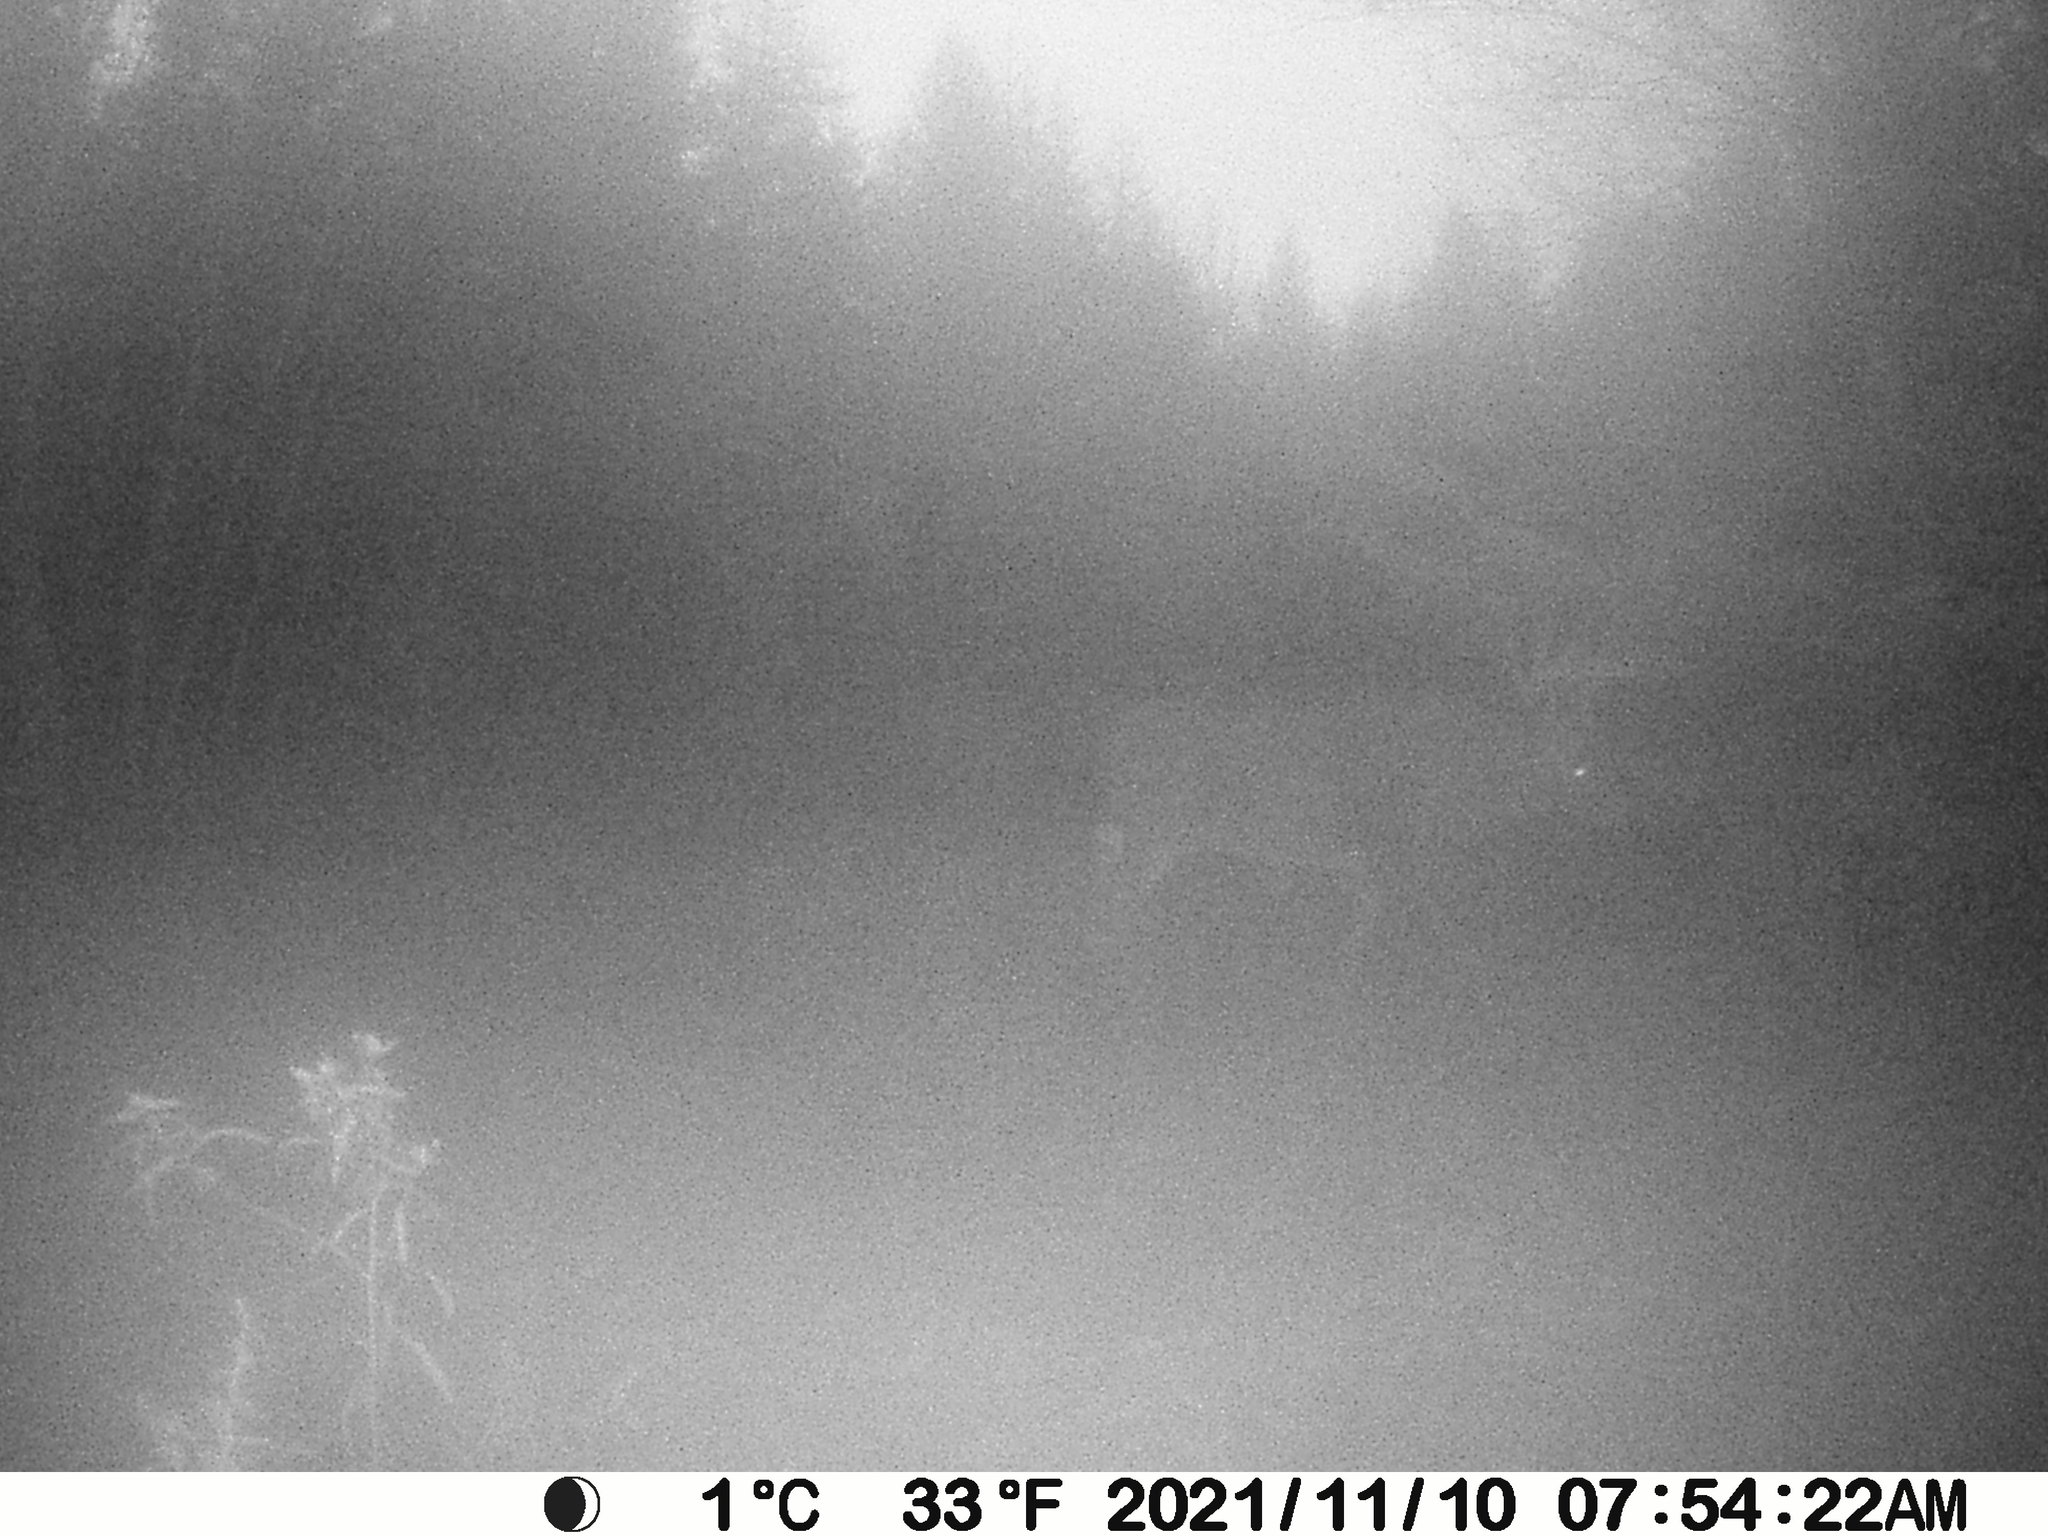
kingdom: Animalia
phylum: Chordata
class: Mammalia
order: Artiodactyla
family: Cervidae
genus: Odocoileus
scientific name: Odocoileus virginianus
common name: White-tailed deer
